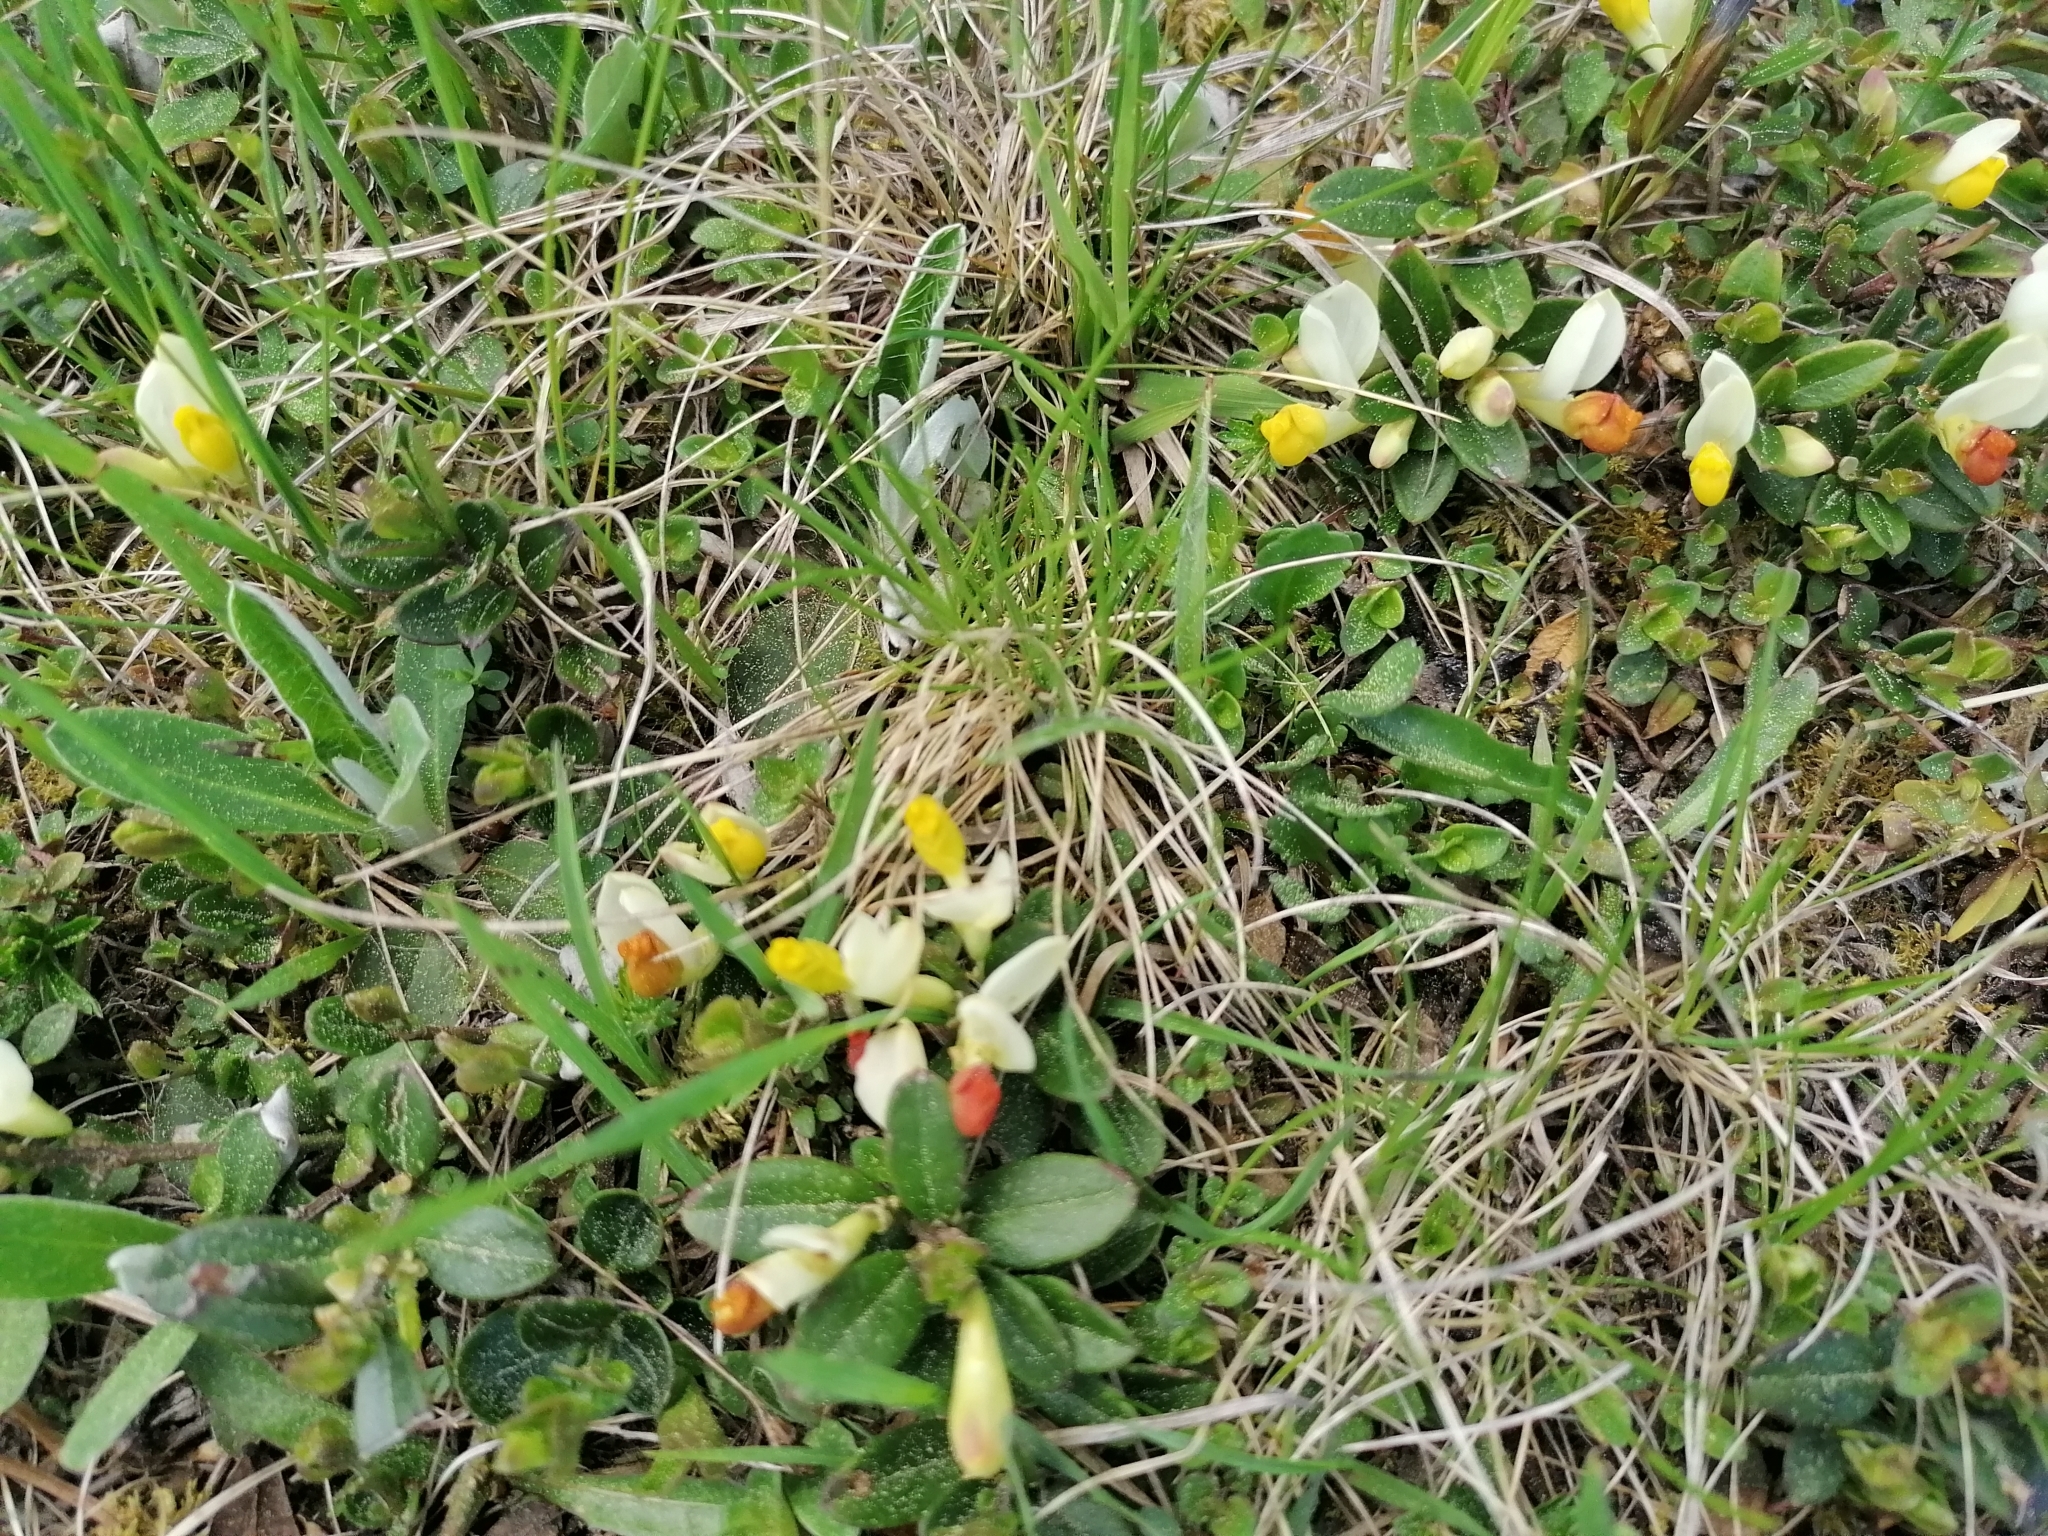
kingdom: Plantae
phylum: Tracheophyta
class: Magnoliopsida
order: Fabales
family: Polygalaceae
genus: Polygaloides
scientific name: Polygaloides chamaebuxus
